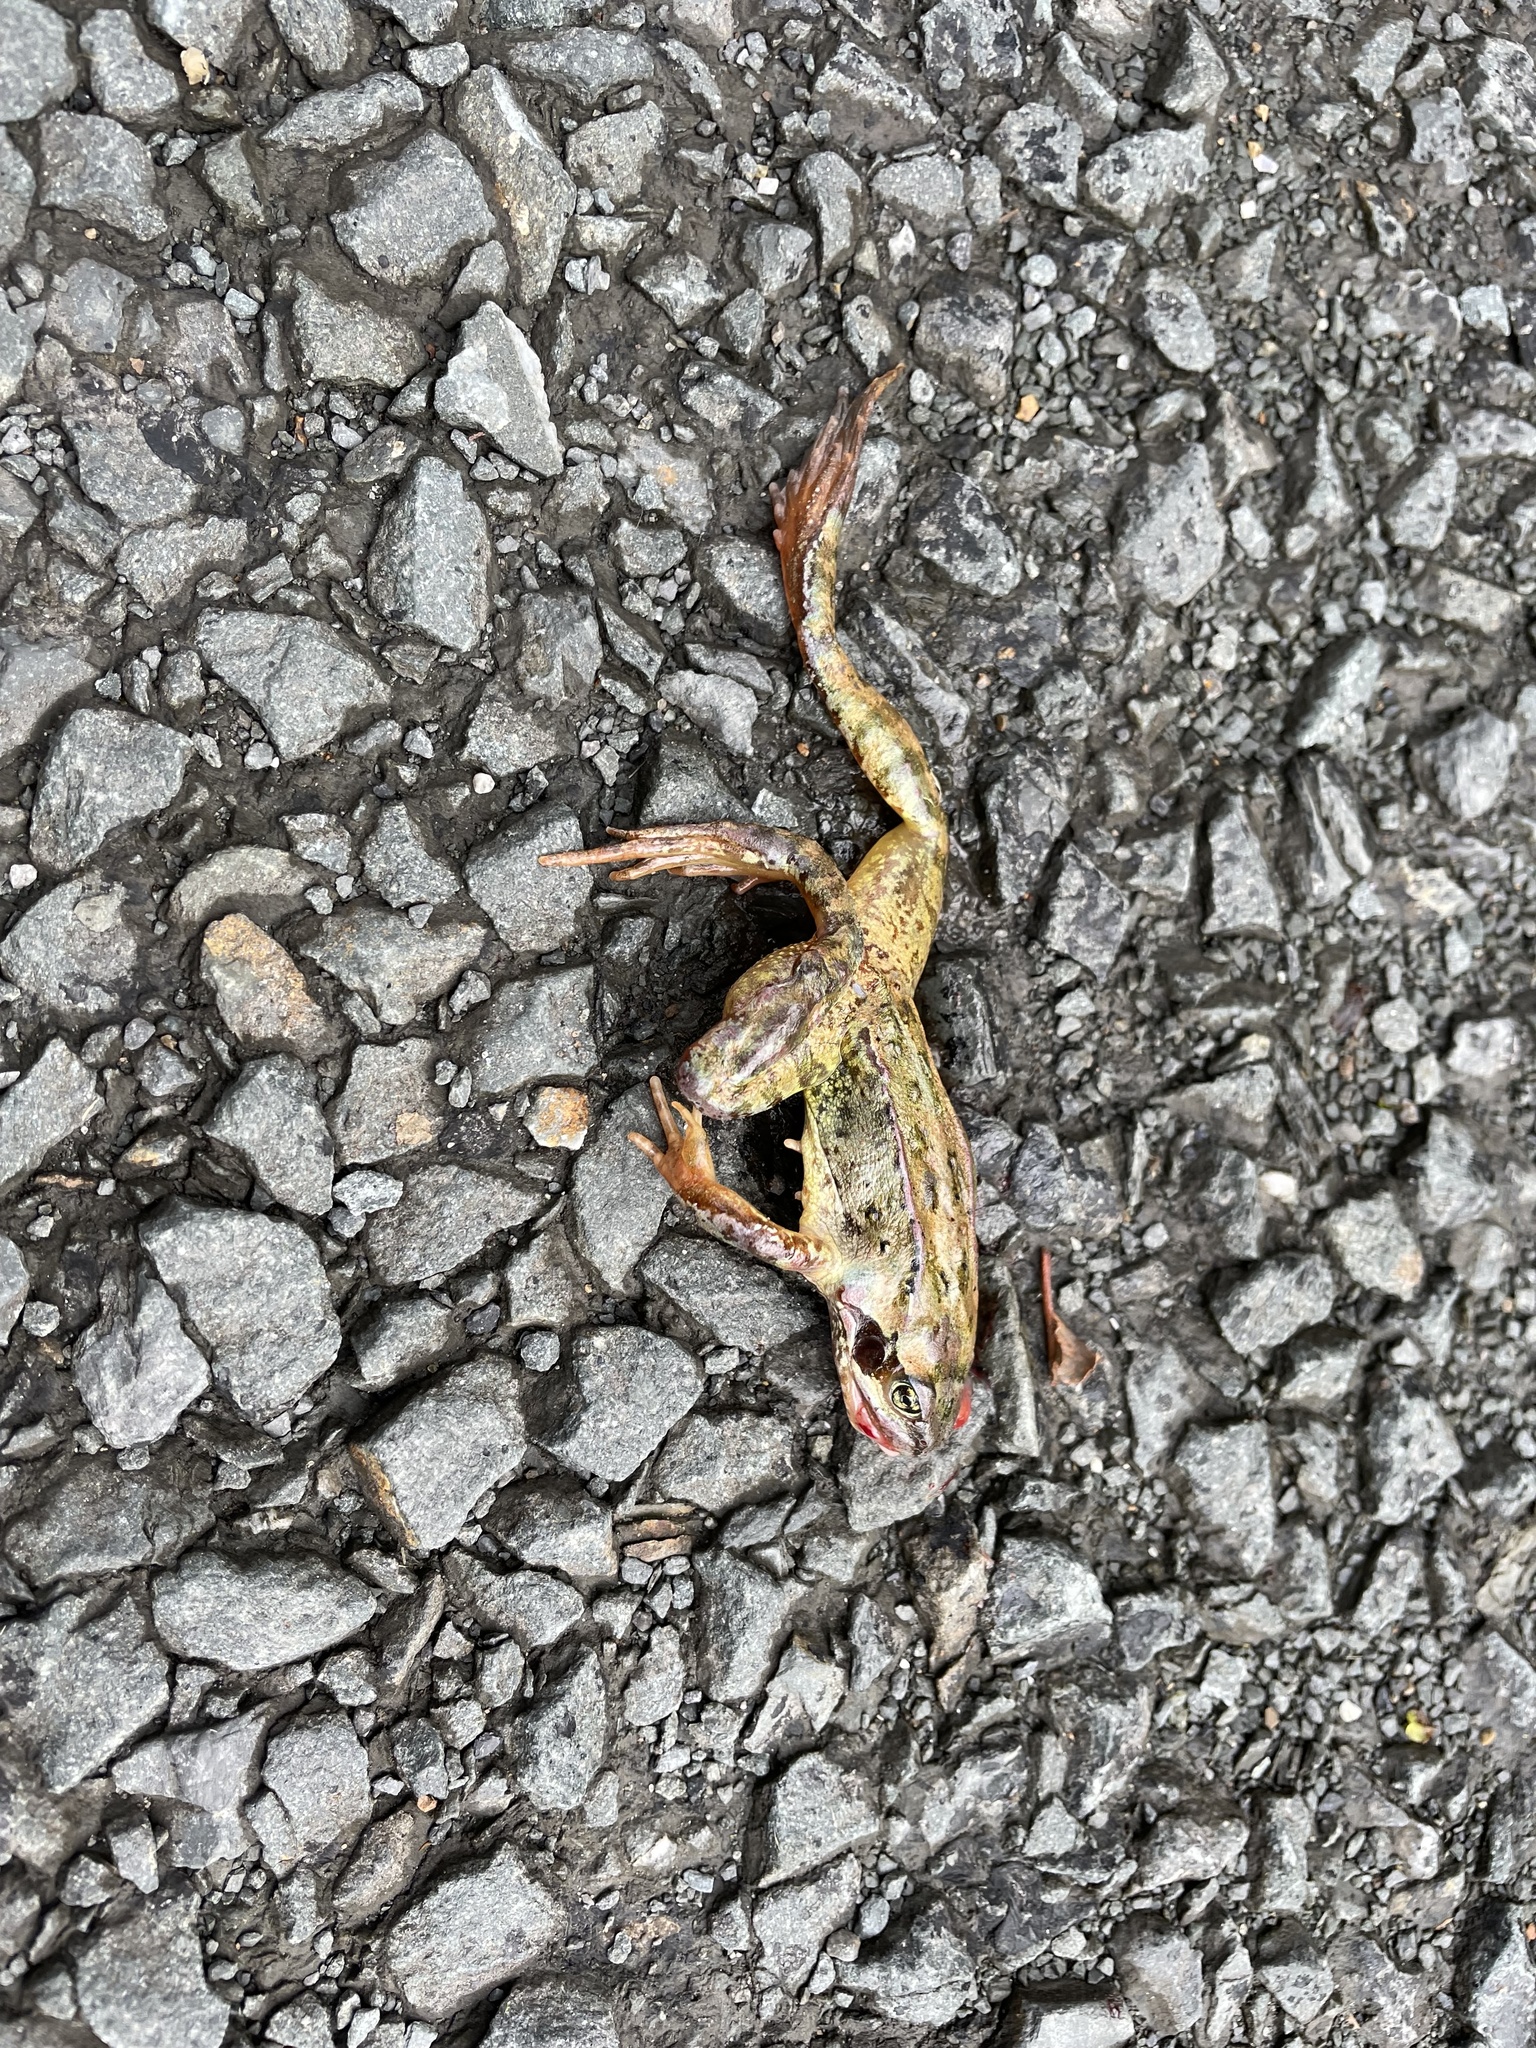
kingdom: Animalia
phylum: Chordata
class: Amphibia
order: Anura
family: Ranidae
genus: Rana
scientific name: Rana temporaria
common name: Common frog
